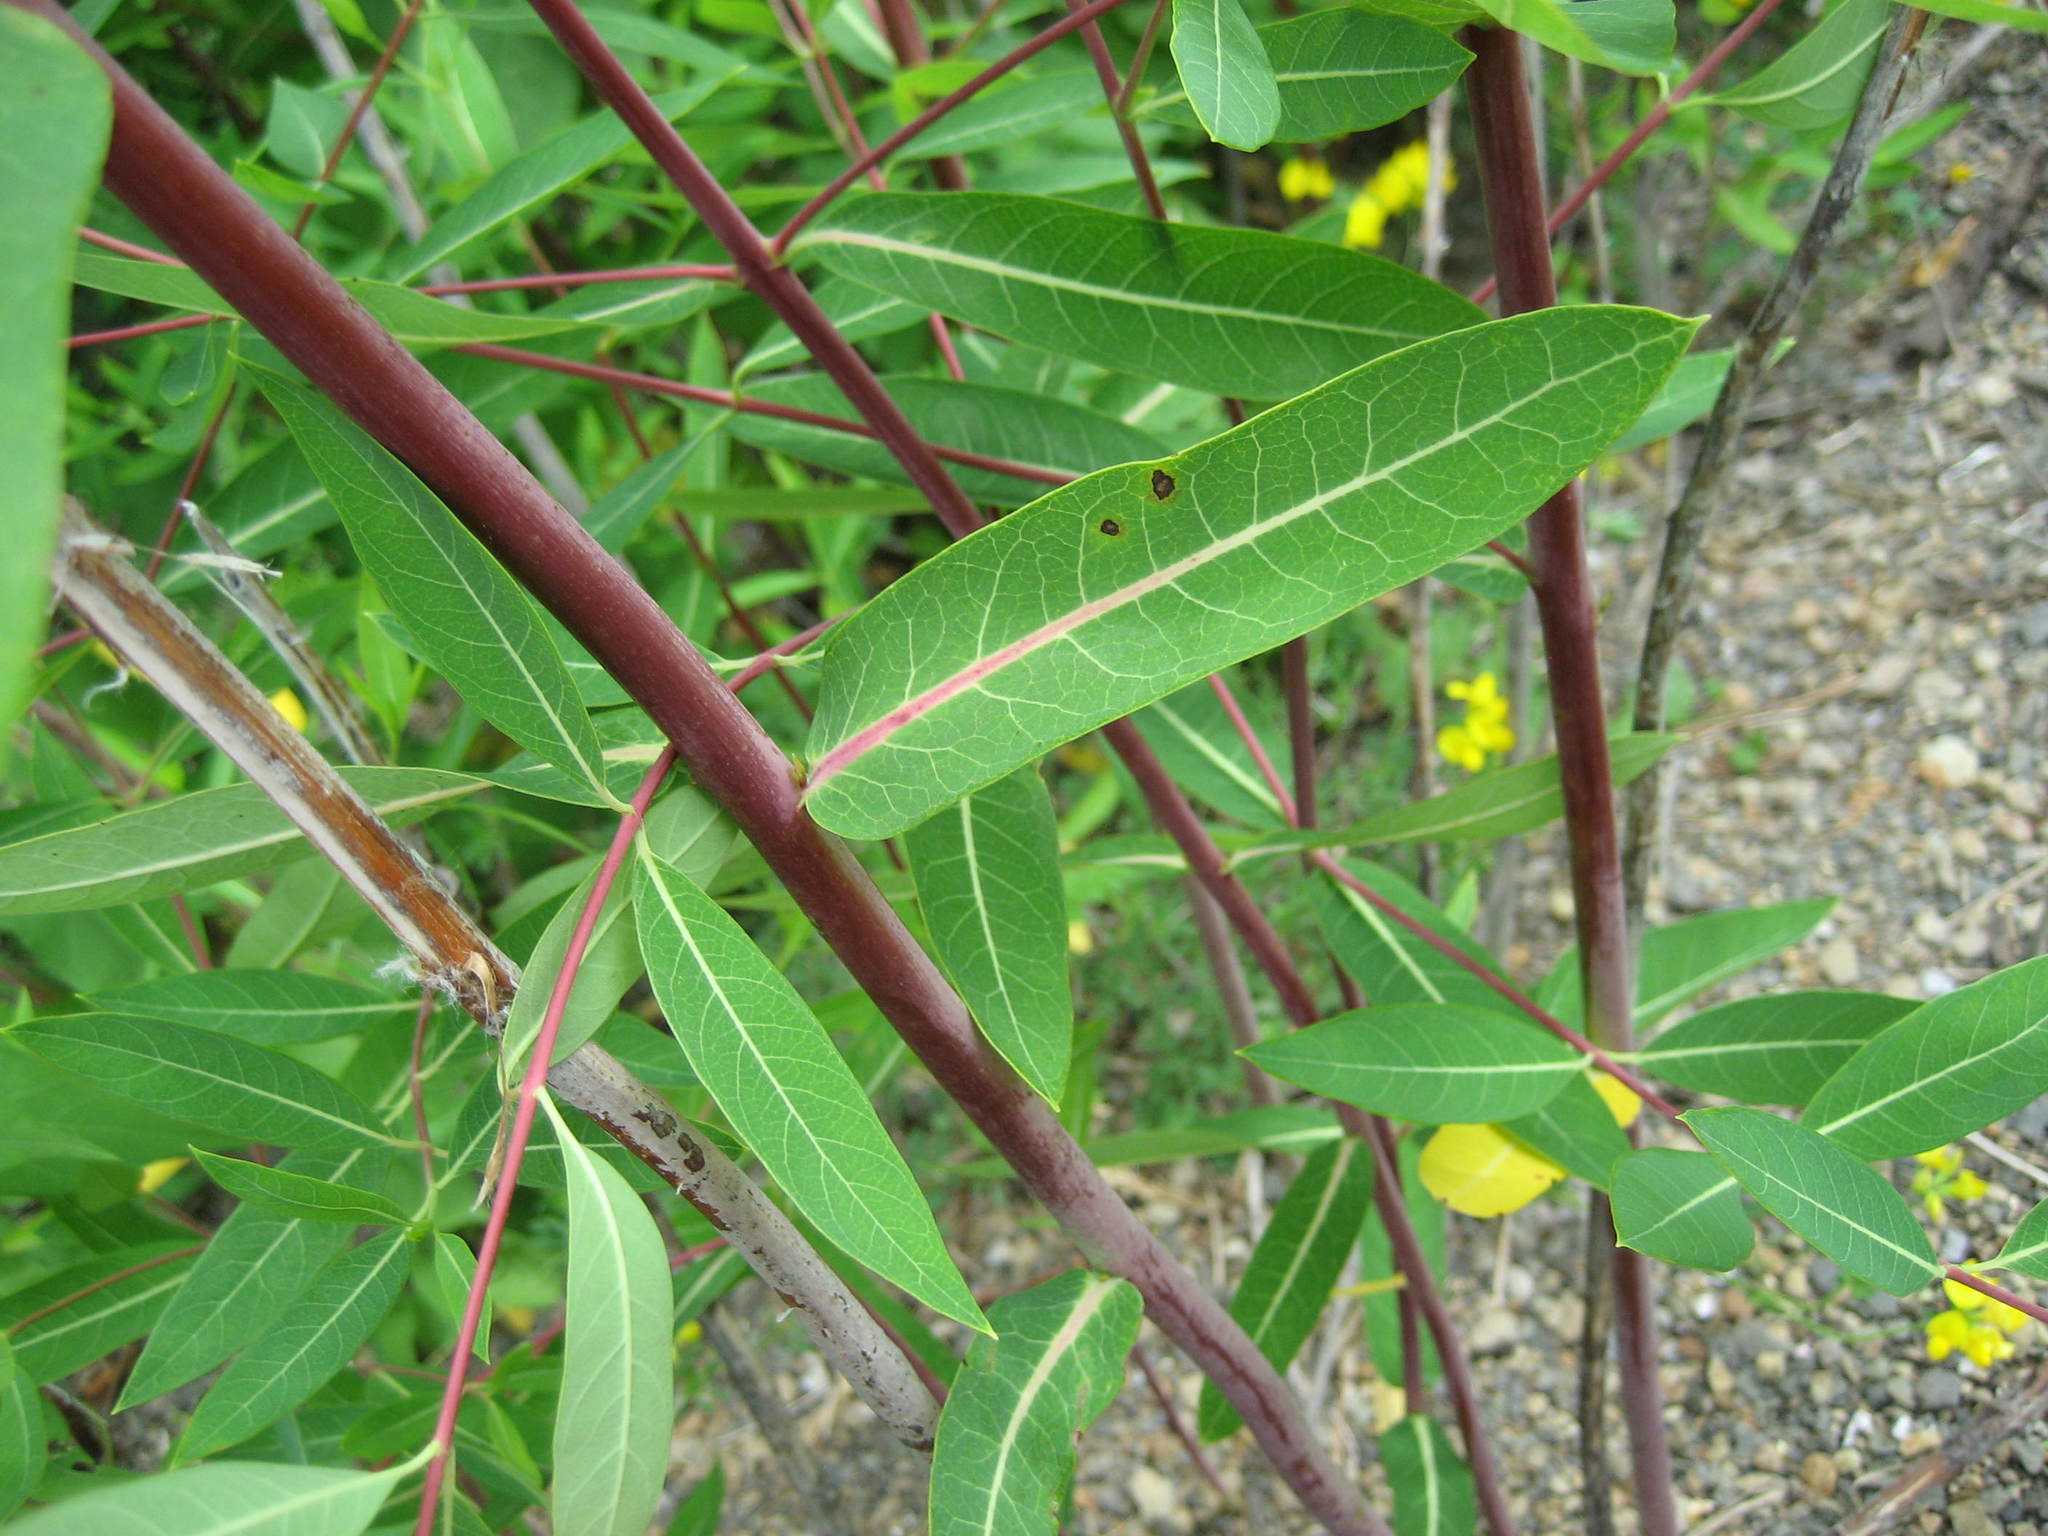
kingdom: Plantae
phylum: Tracheophyta
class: Magnoliopsida
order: Gentianales
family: Apocynaceae
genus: Apocynum
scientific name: Apocynum cannabinum
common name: Hemp dogbane
